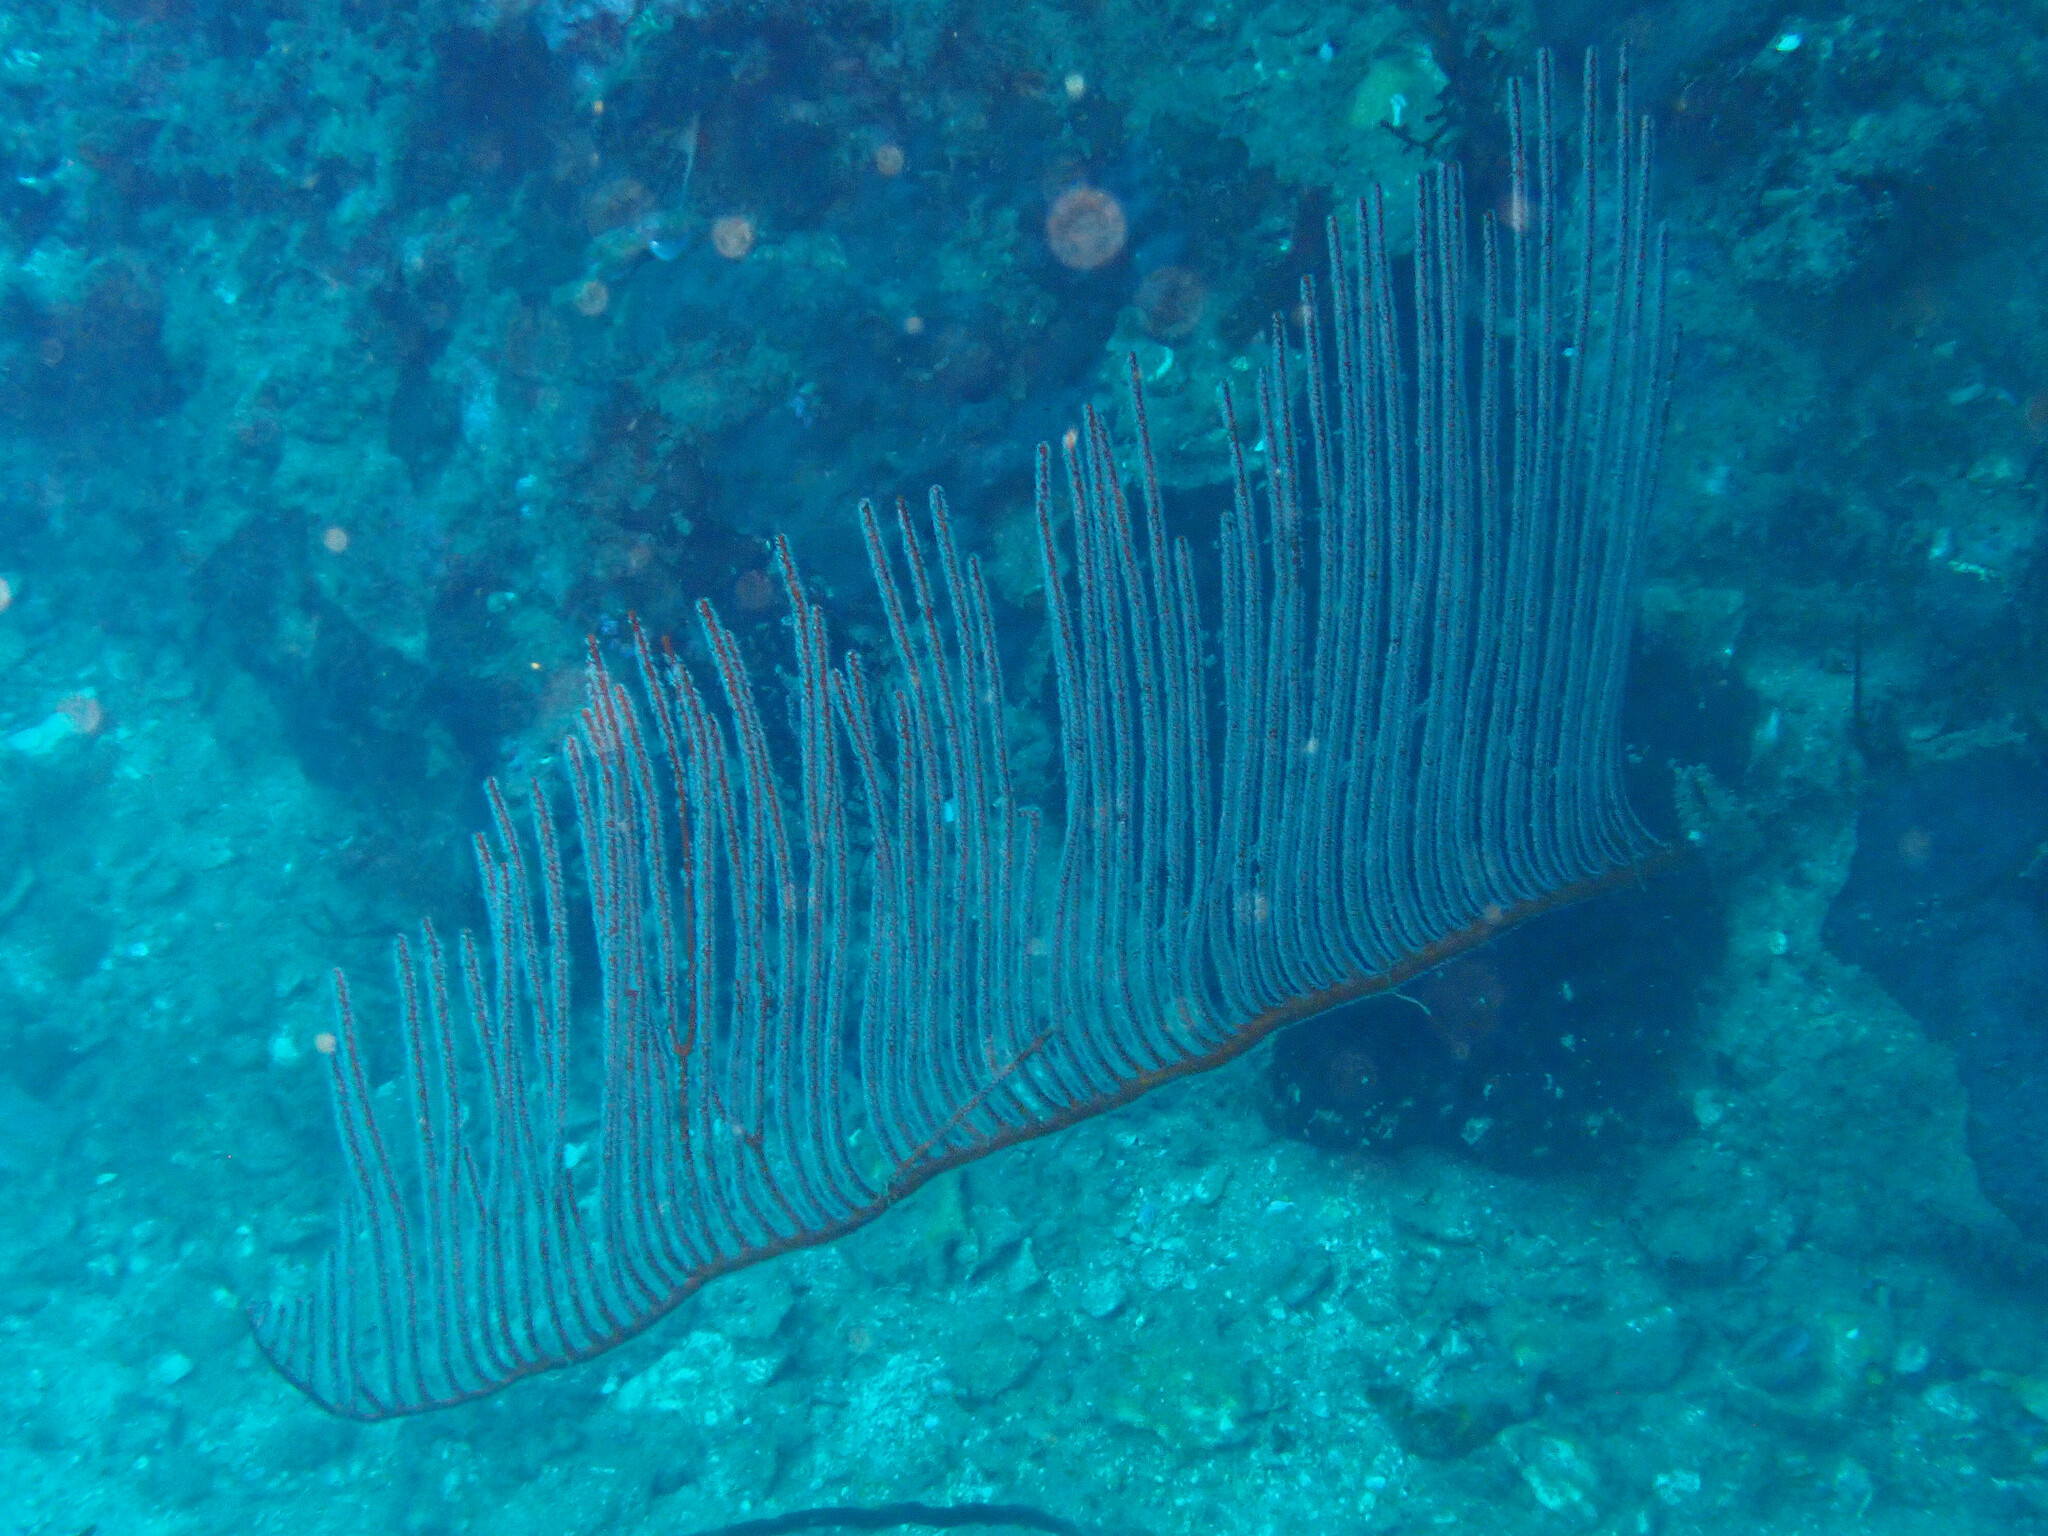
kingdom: Animalia
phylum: Cnidaria
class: Anthozoa
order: Scleralcyonacea
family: Ellisellidae
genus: Ctenocella
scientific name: Ctenocella pectinata
